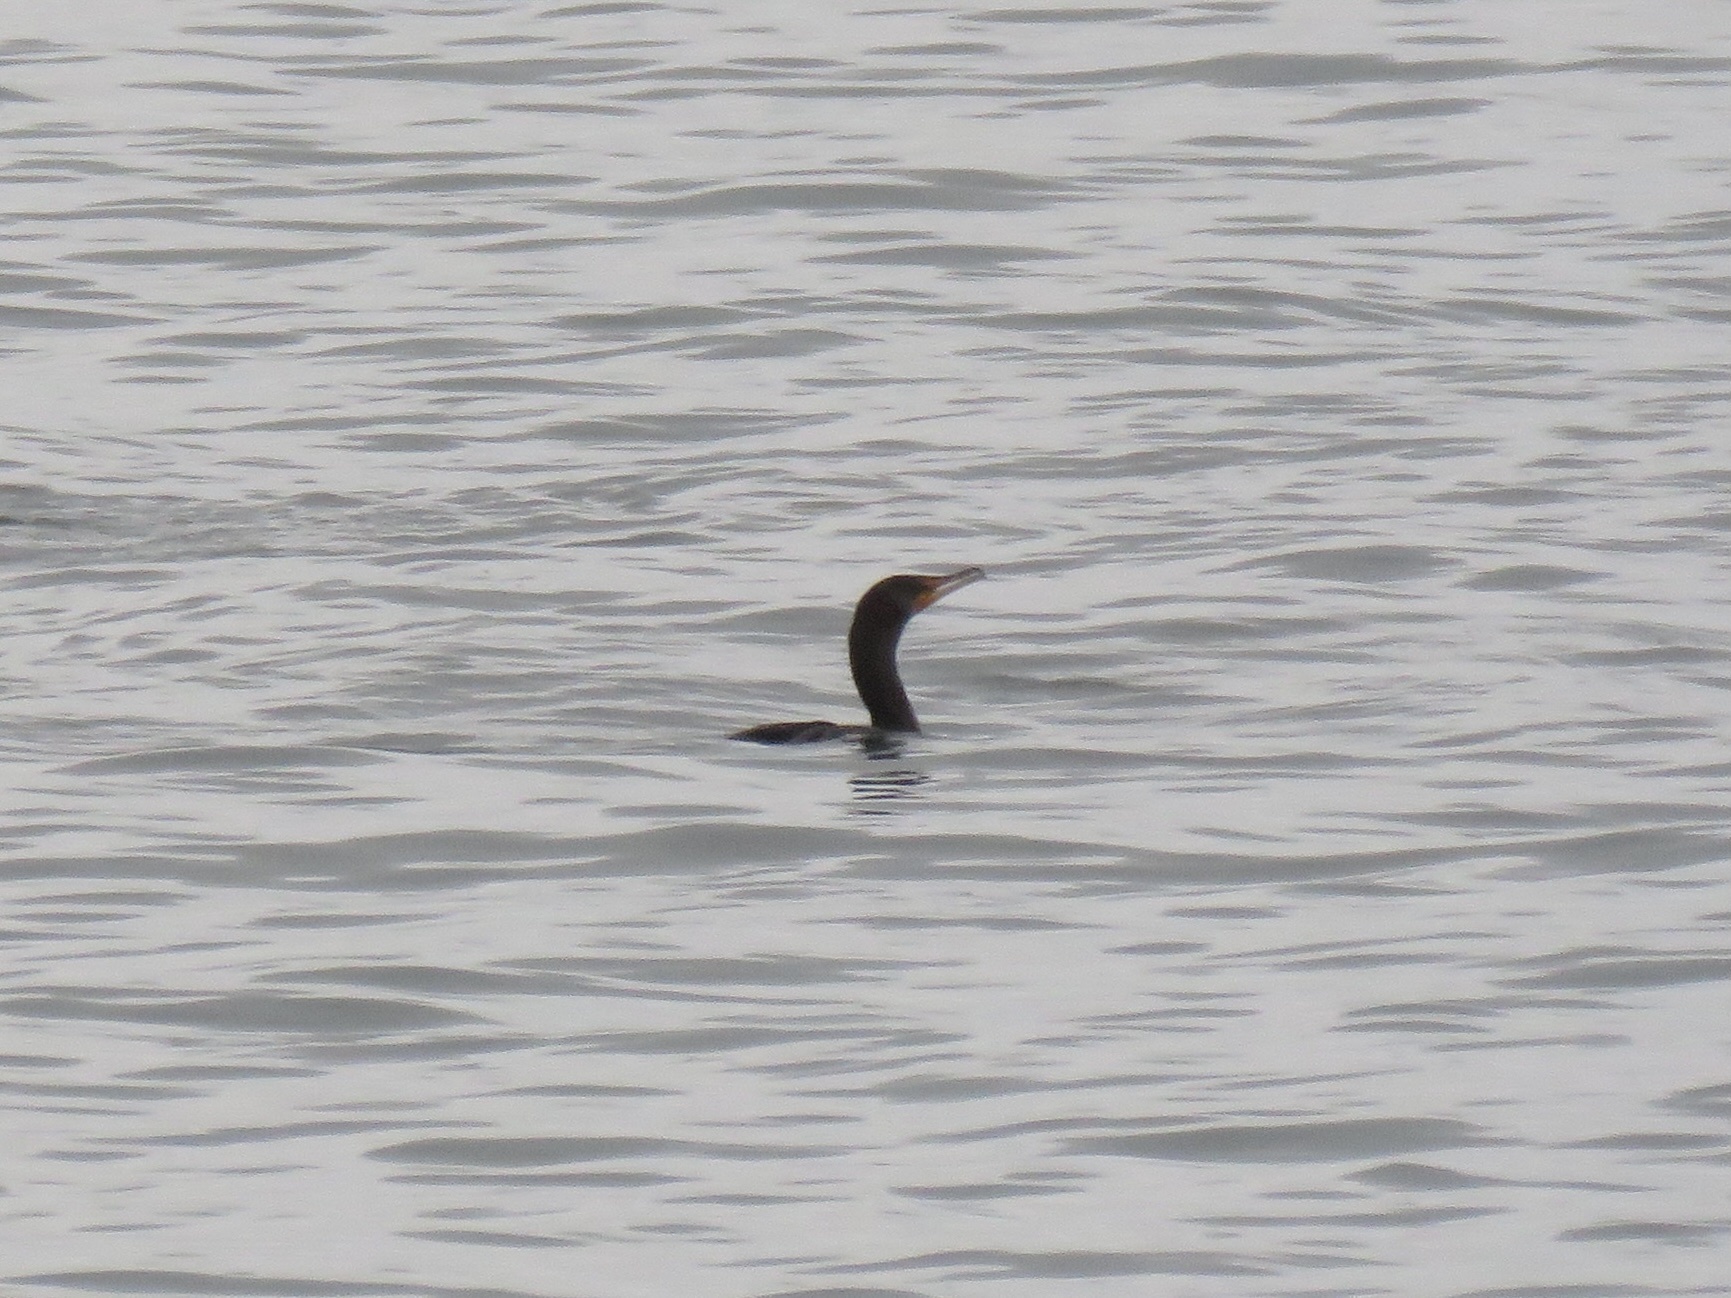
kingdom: Animalia
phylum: Chordata
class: Aves
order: Suliformes
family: Phalacrocoracidae
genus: Phalacrocorax
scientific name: Phalacrocorax auritus
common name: Double-crested cormorant
